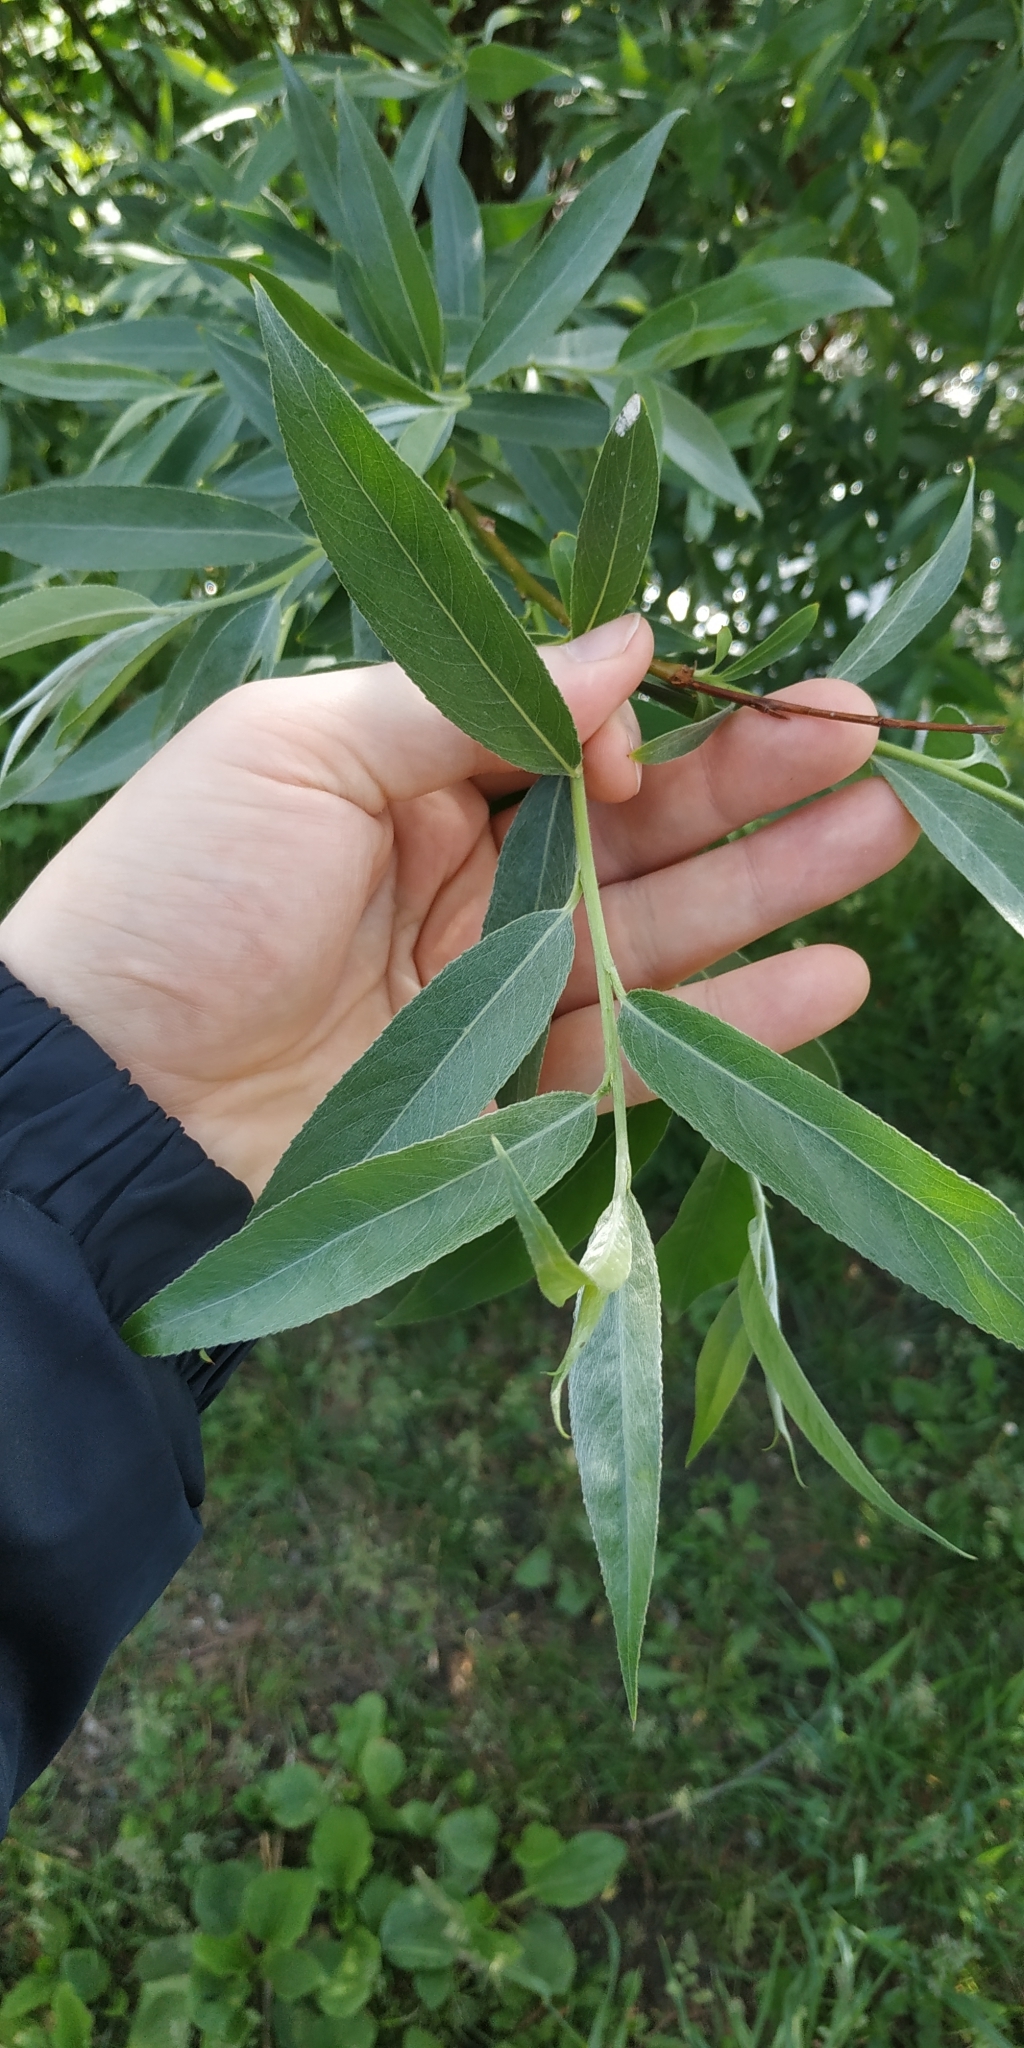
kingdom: Plantae
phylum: Tracheophyta
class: Magnoliopsida
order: Malpighiales
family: Salicaceae
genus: Salix
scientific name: Salix alba
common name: White willow
